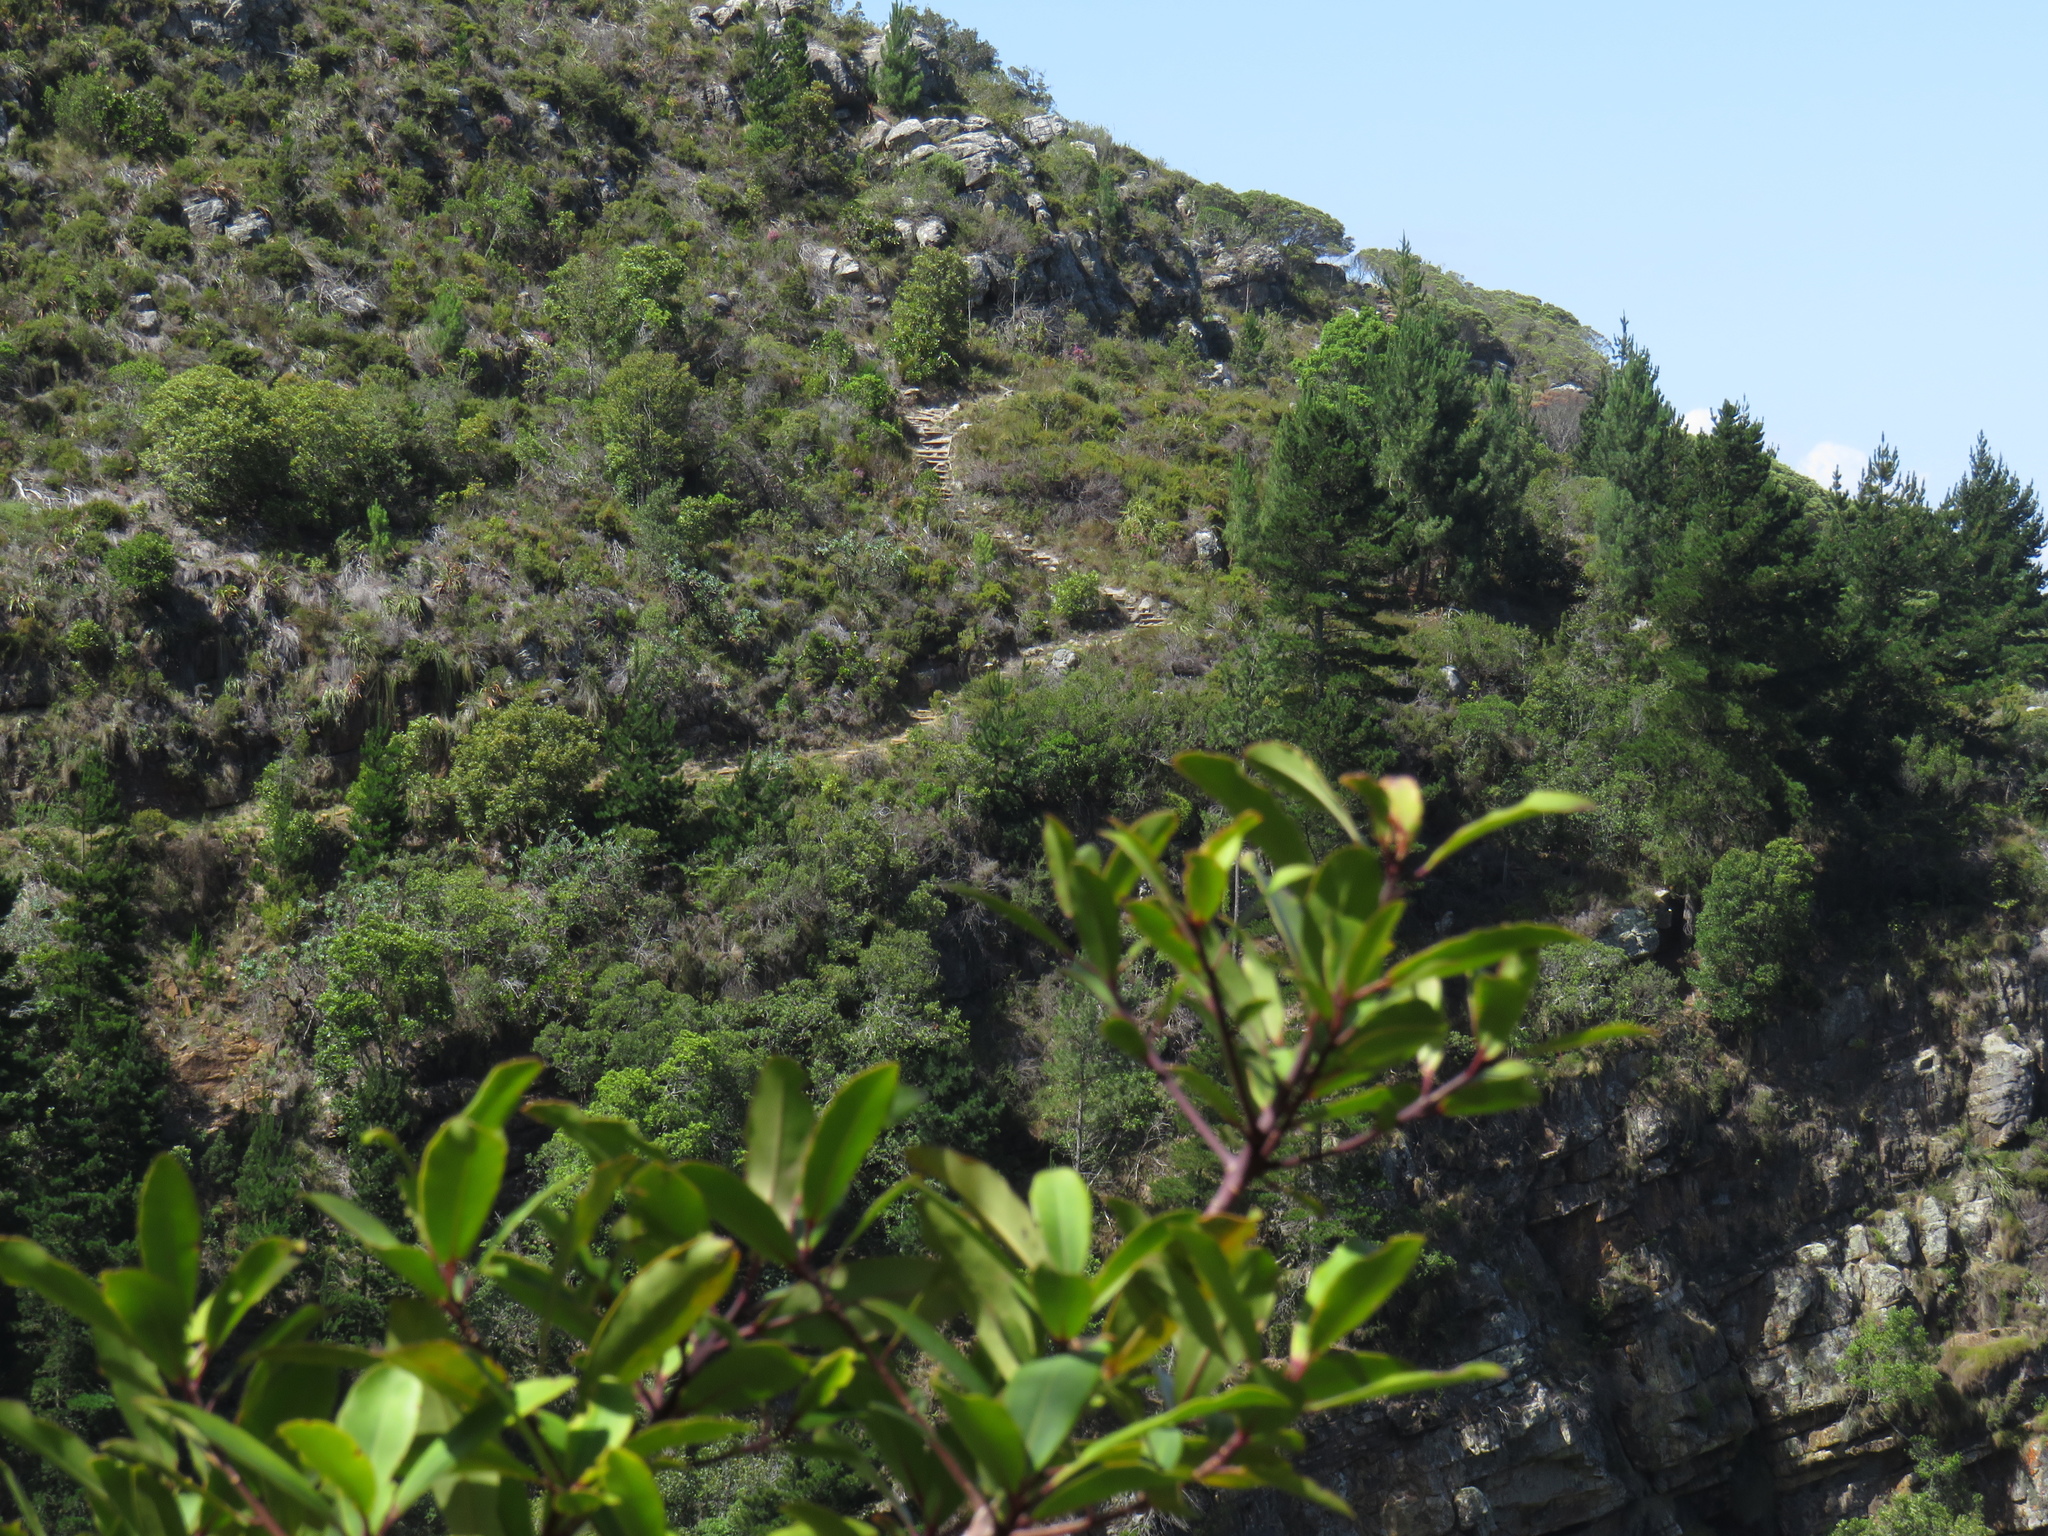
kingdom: Plantae
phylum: Tracheophyta
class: Magnoliopsida
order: Ericales
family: Primulaceae
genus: Myrsine
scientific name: Myrsine melanophloeos
